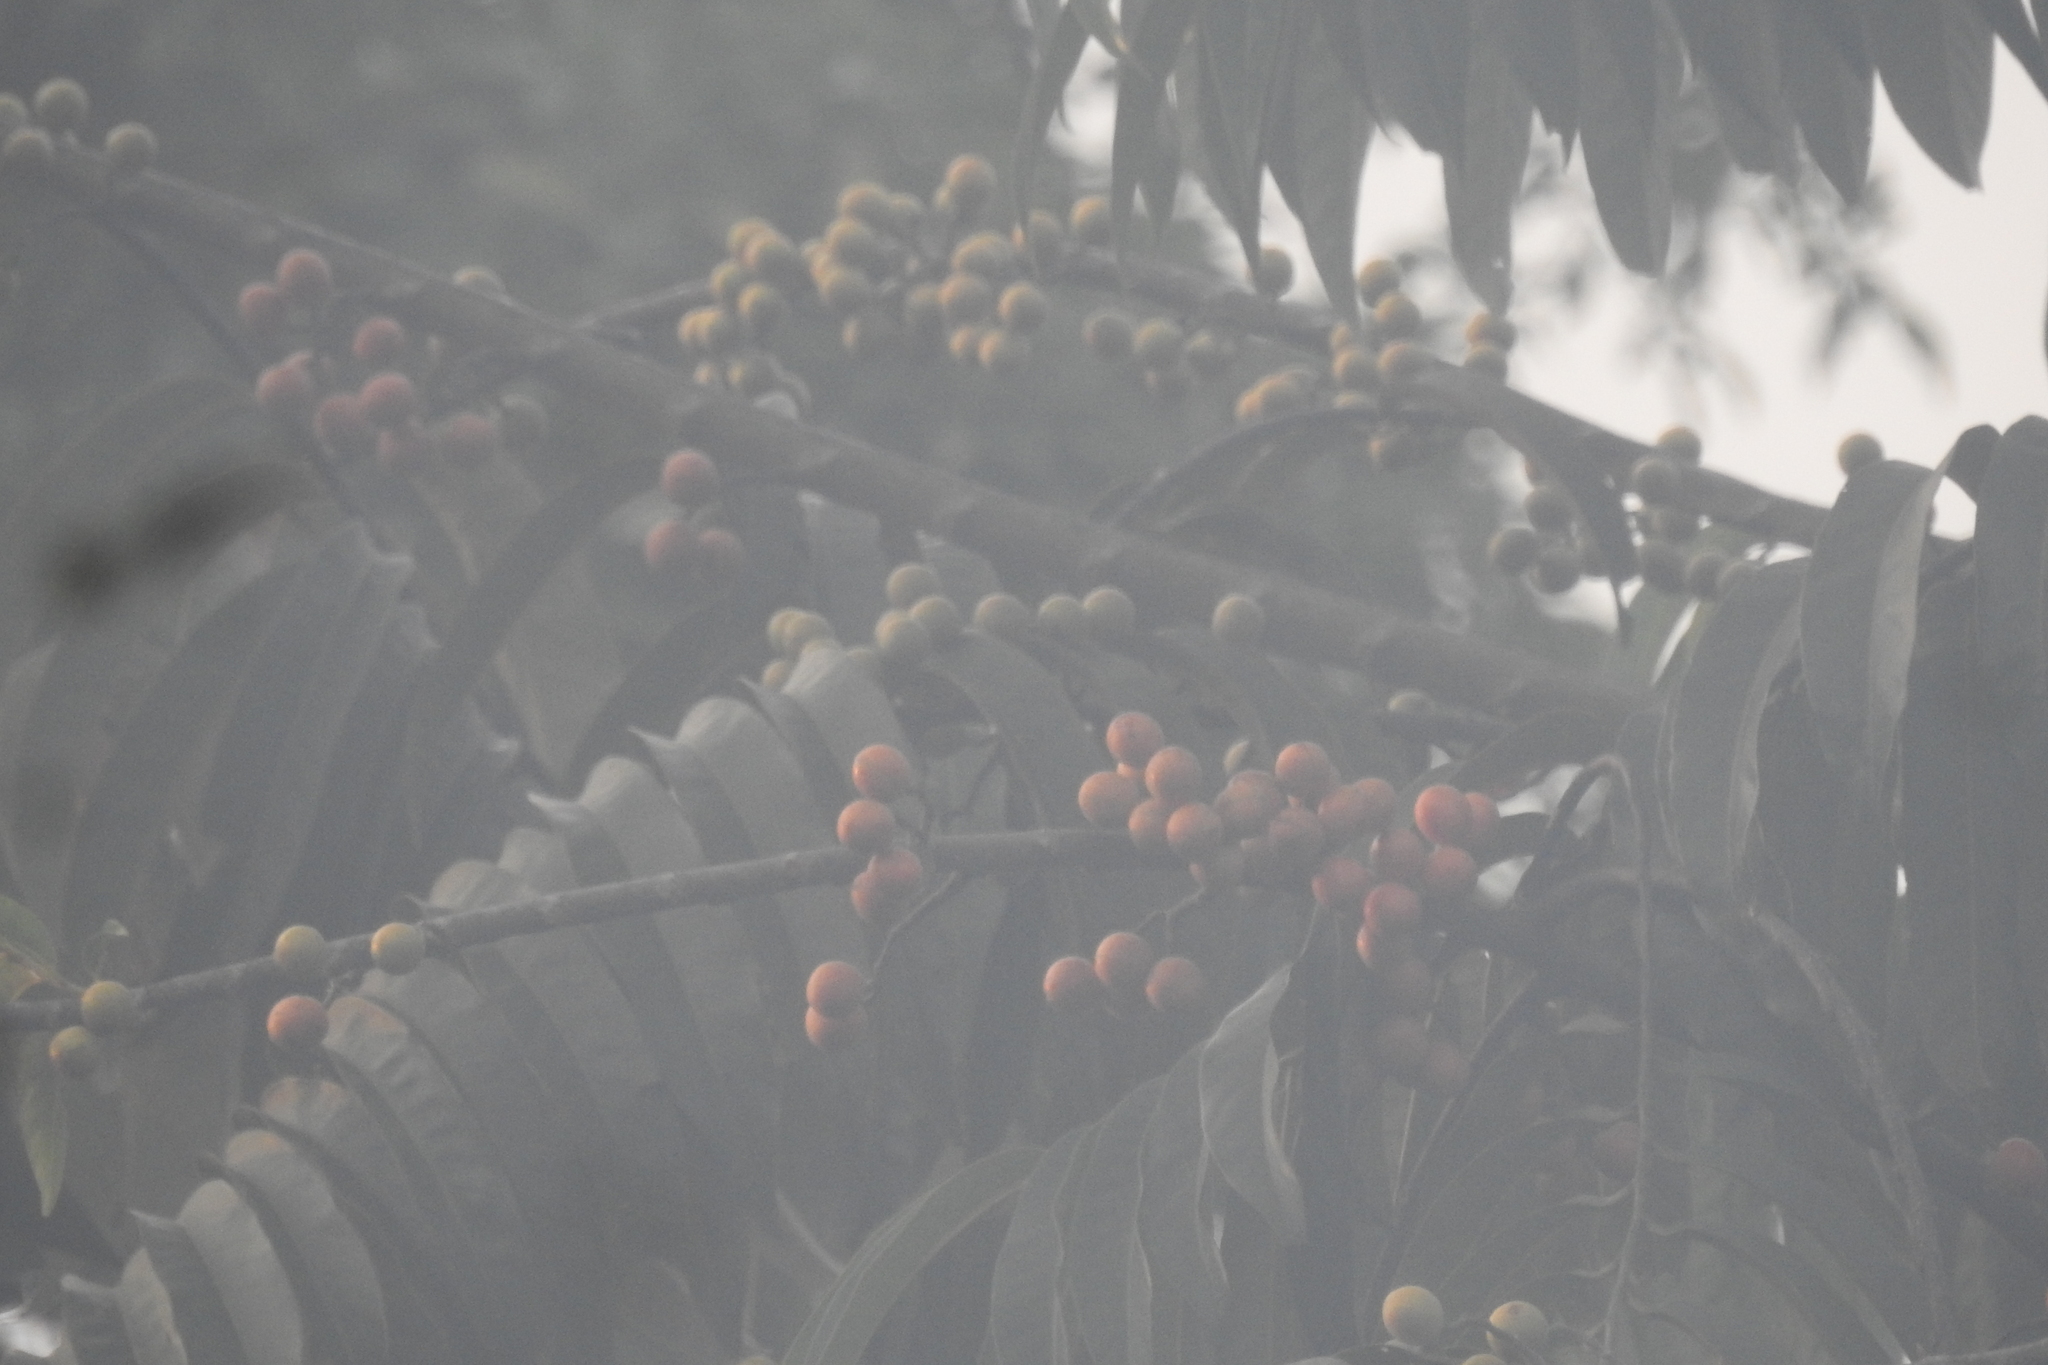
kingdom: Plantae
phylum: Tracheophyta
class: Magnoliopsida
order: Magnoliales
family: Myristicaceae
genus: Horsfieldia
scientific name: Horsfieldia irya
